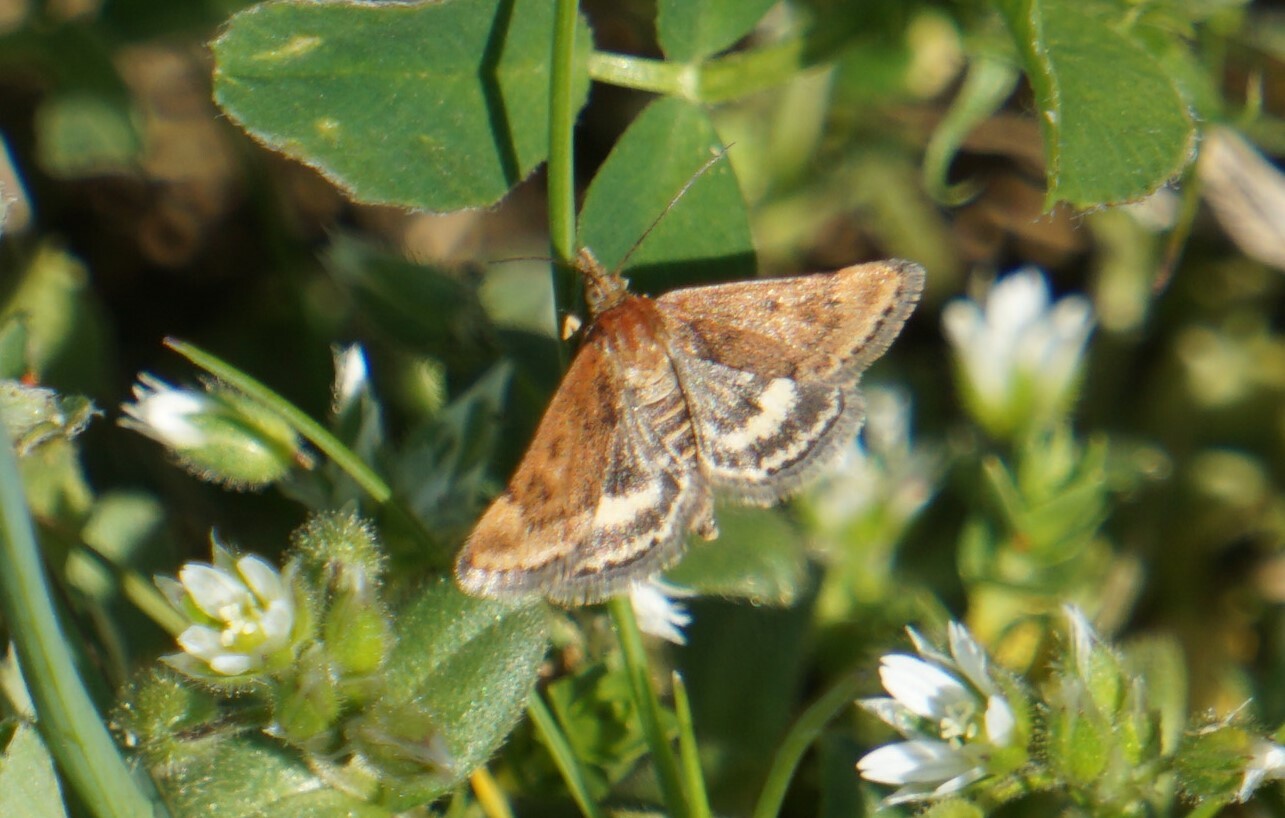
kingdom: Animalia
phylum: Arthropoda
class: Insecta
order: Lepidoptera
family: Crambidae
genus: Pyrausta
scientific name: Pyrausta despicata
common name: Straw-barred pearl
